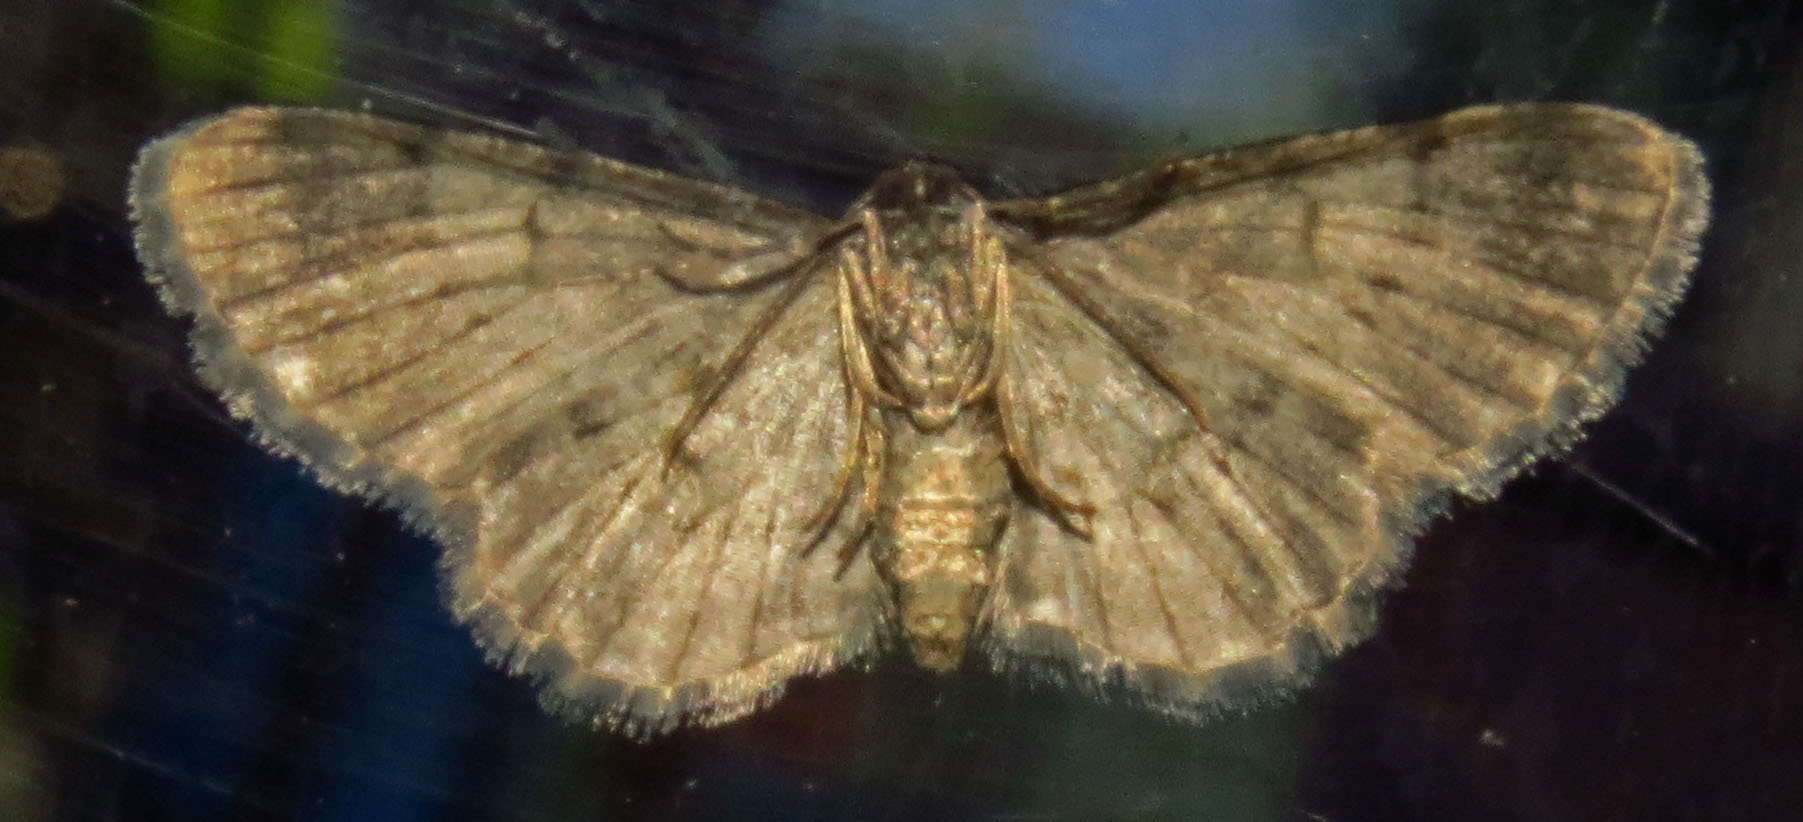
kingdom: Animalia
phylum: Arthropoda
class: Insecta
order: Lepidoptera
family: Geometridae
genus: Glenoides
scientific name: Glenoides texanaria
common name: Texas gray
